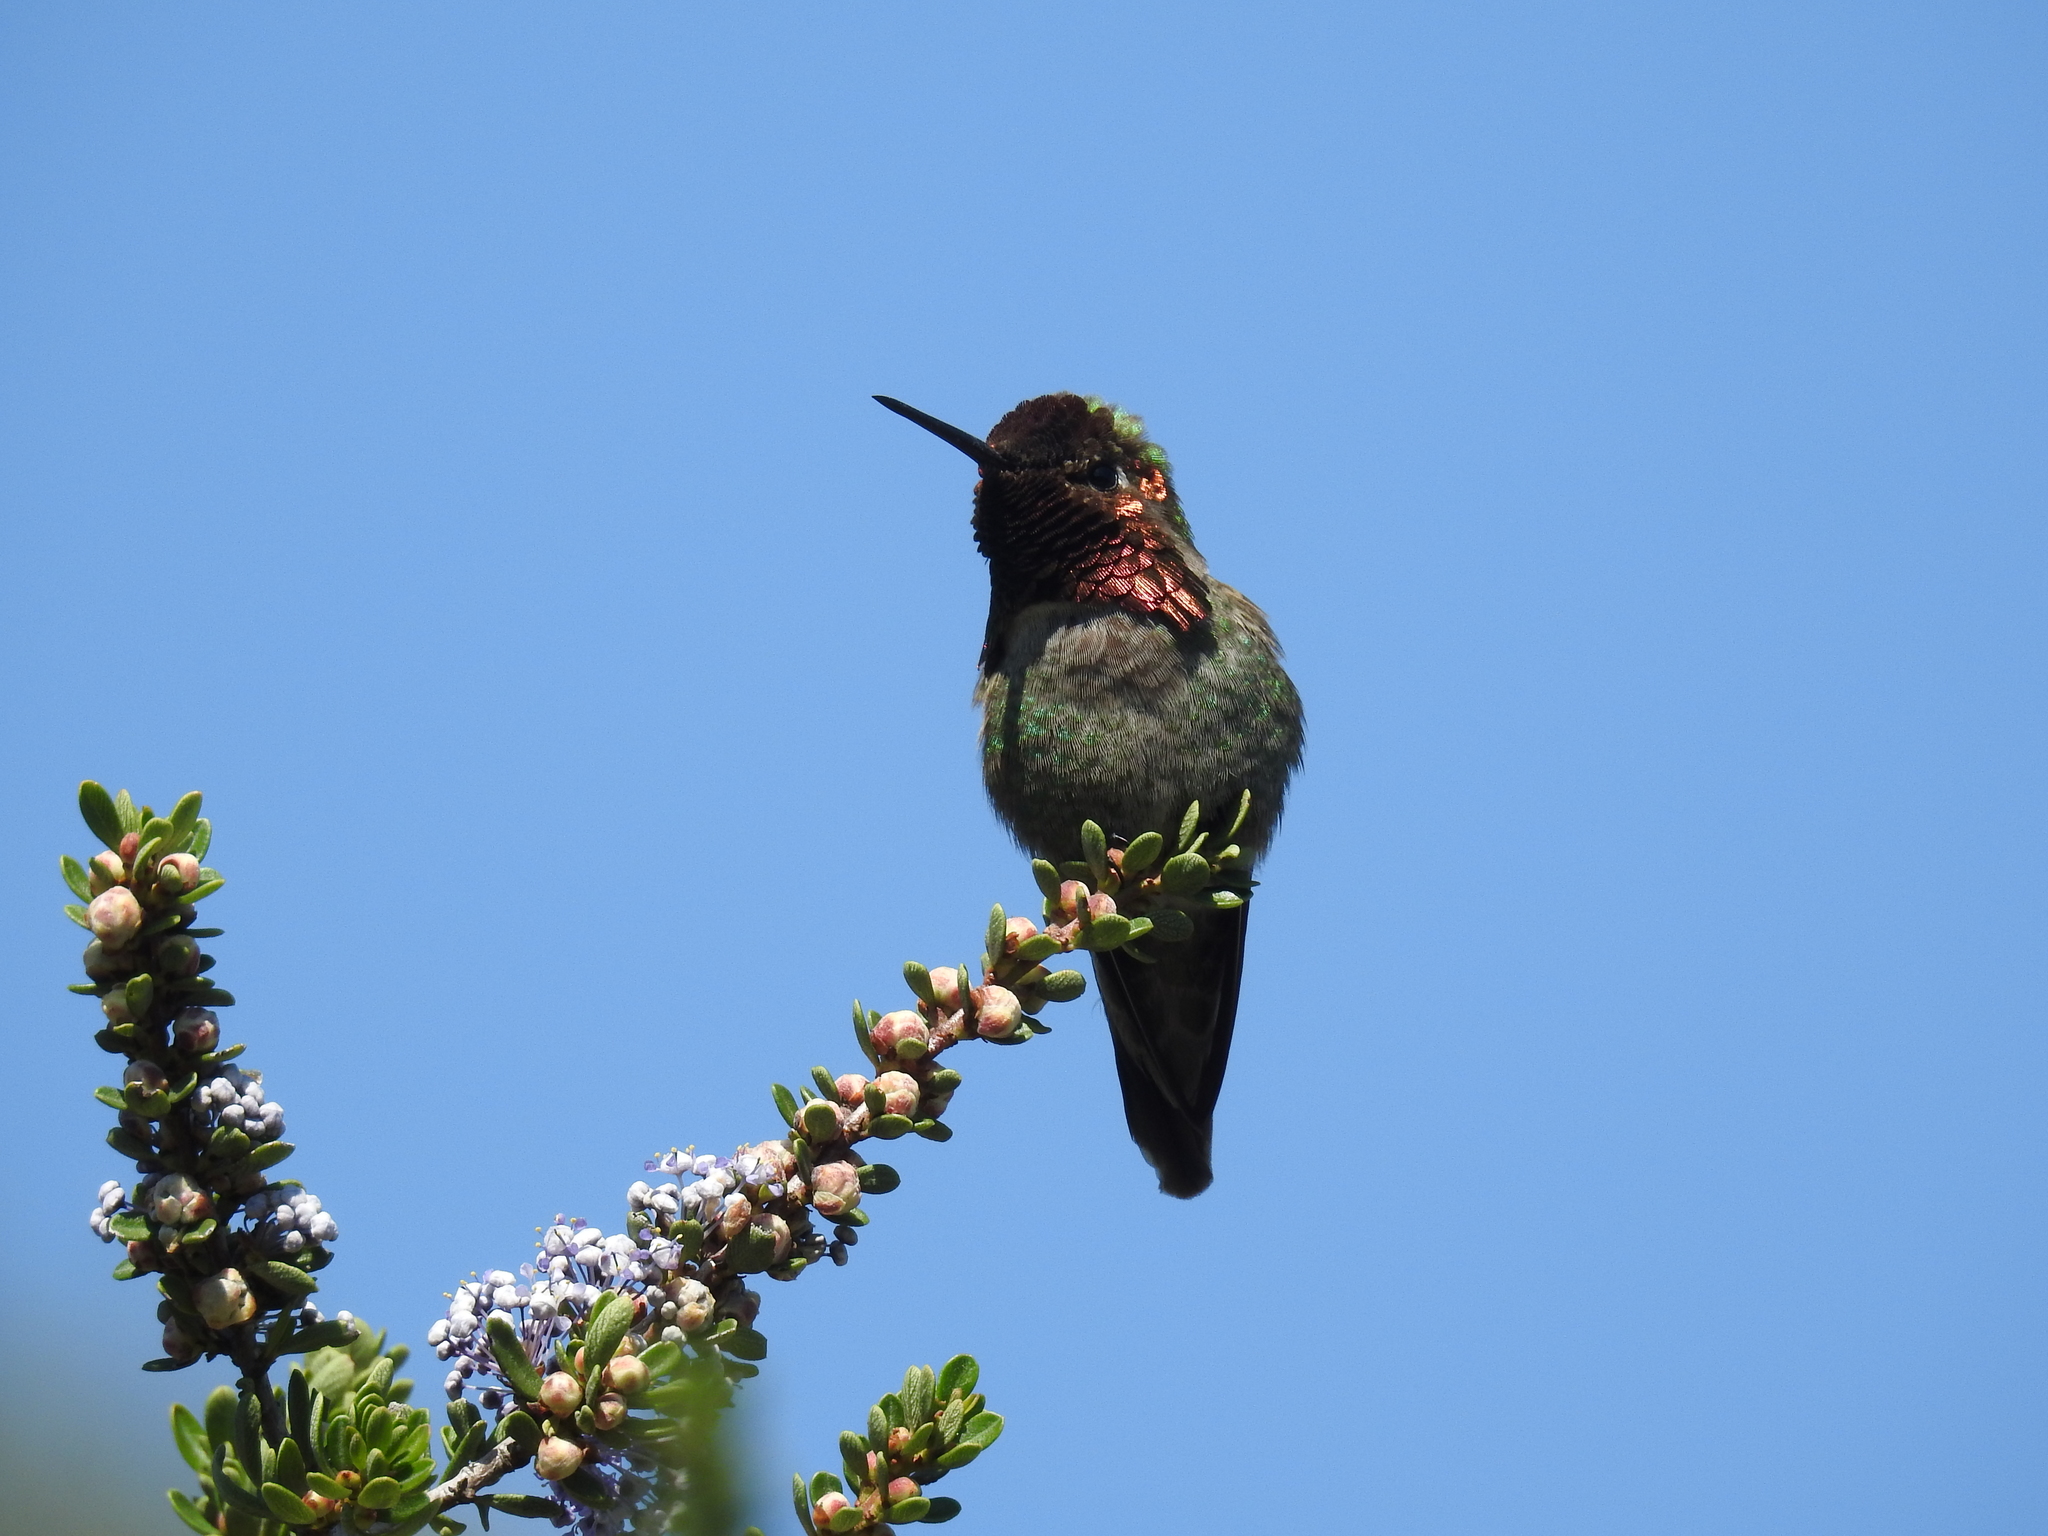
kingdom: Animalia
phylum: Chordata
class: Aves
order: Apodiformes
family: Trochilidae
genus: Calypte
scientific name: Calypte anna
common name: Anna's hummingbird
